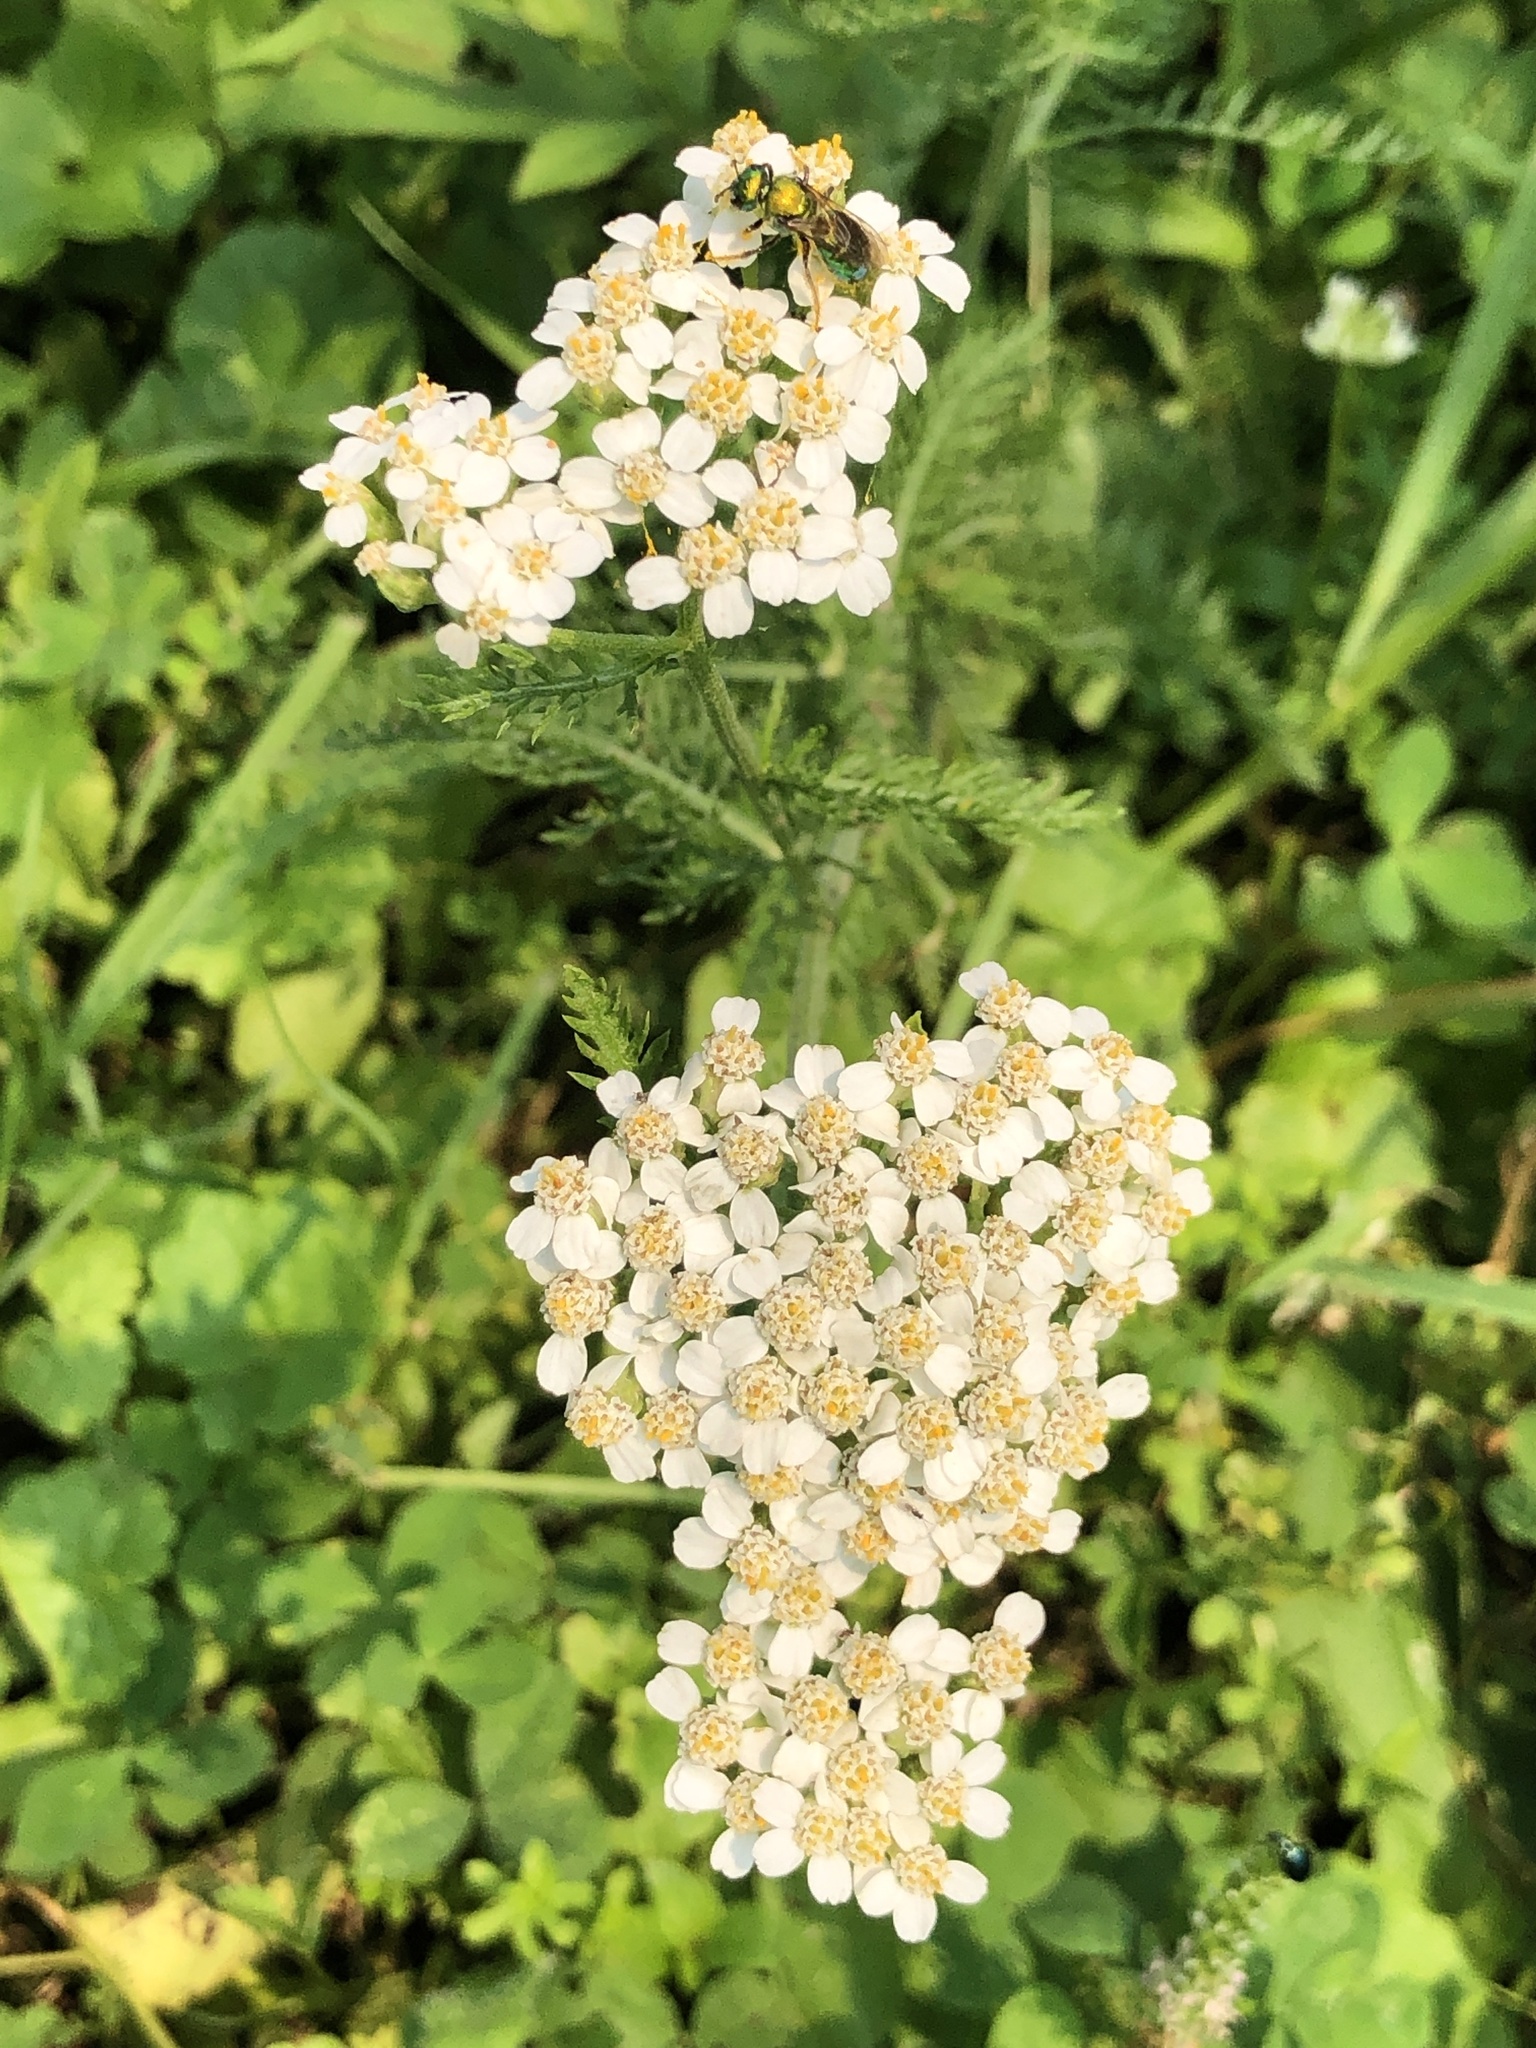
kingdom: Plantae
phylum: Tracheophyta
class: Magnoliopsida
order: Asterales
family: Asteraceae
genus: Achillea
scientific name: Achillea millefolium
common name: Yarrow
